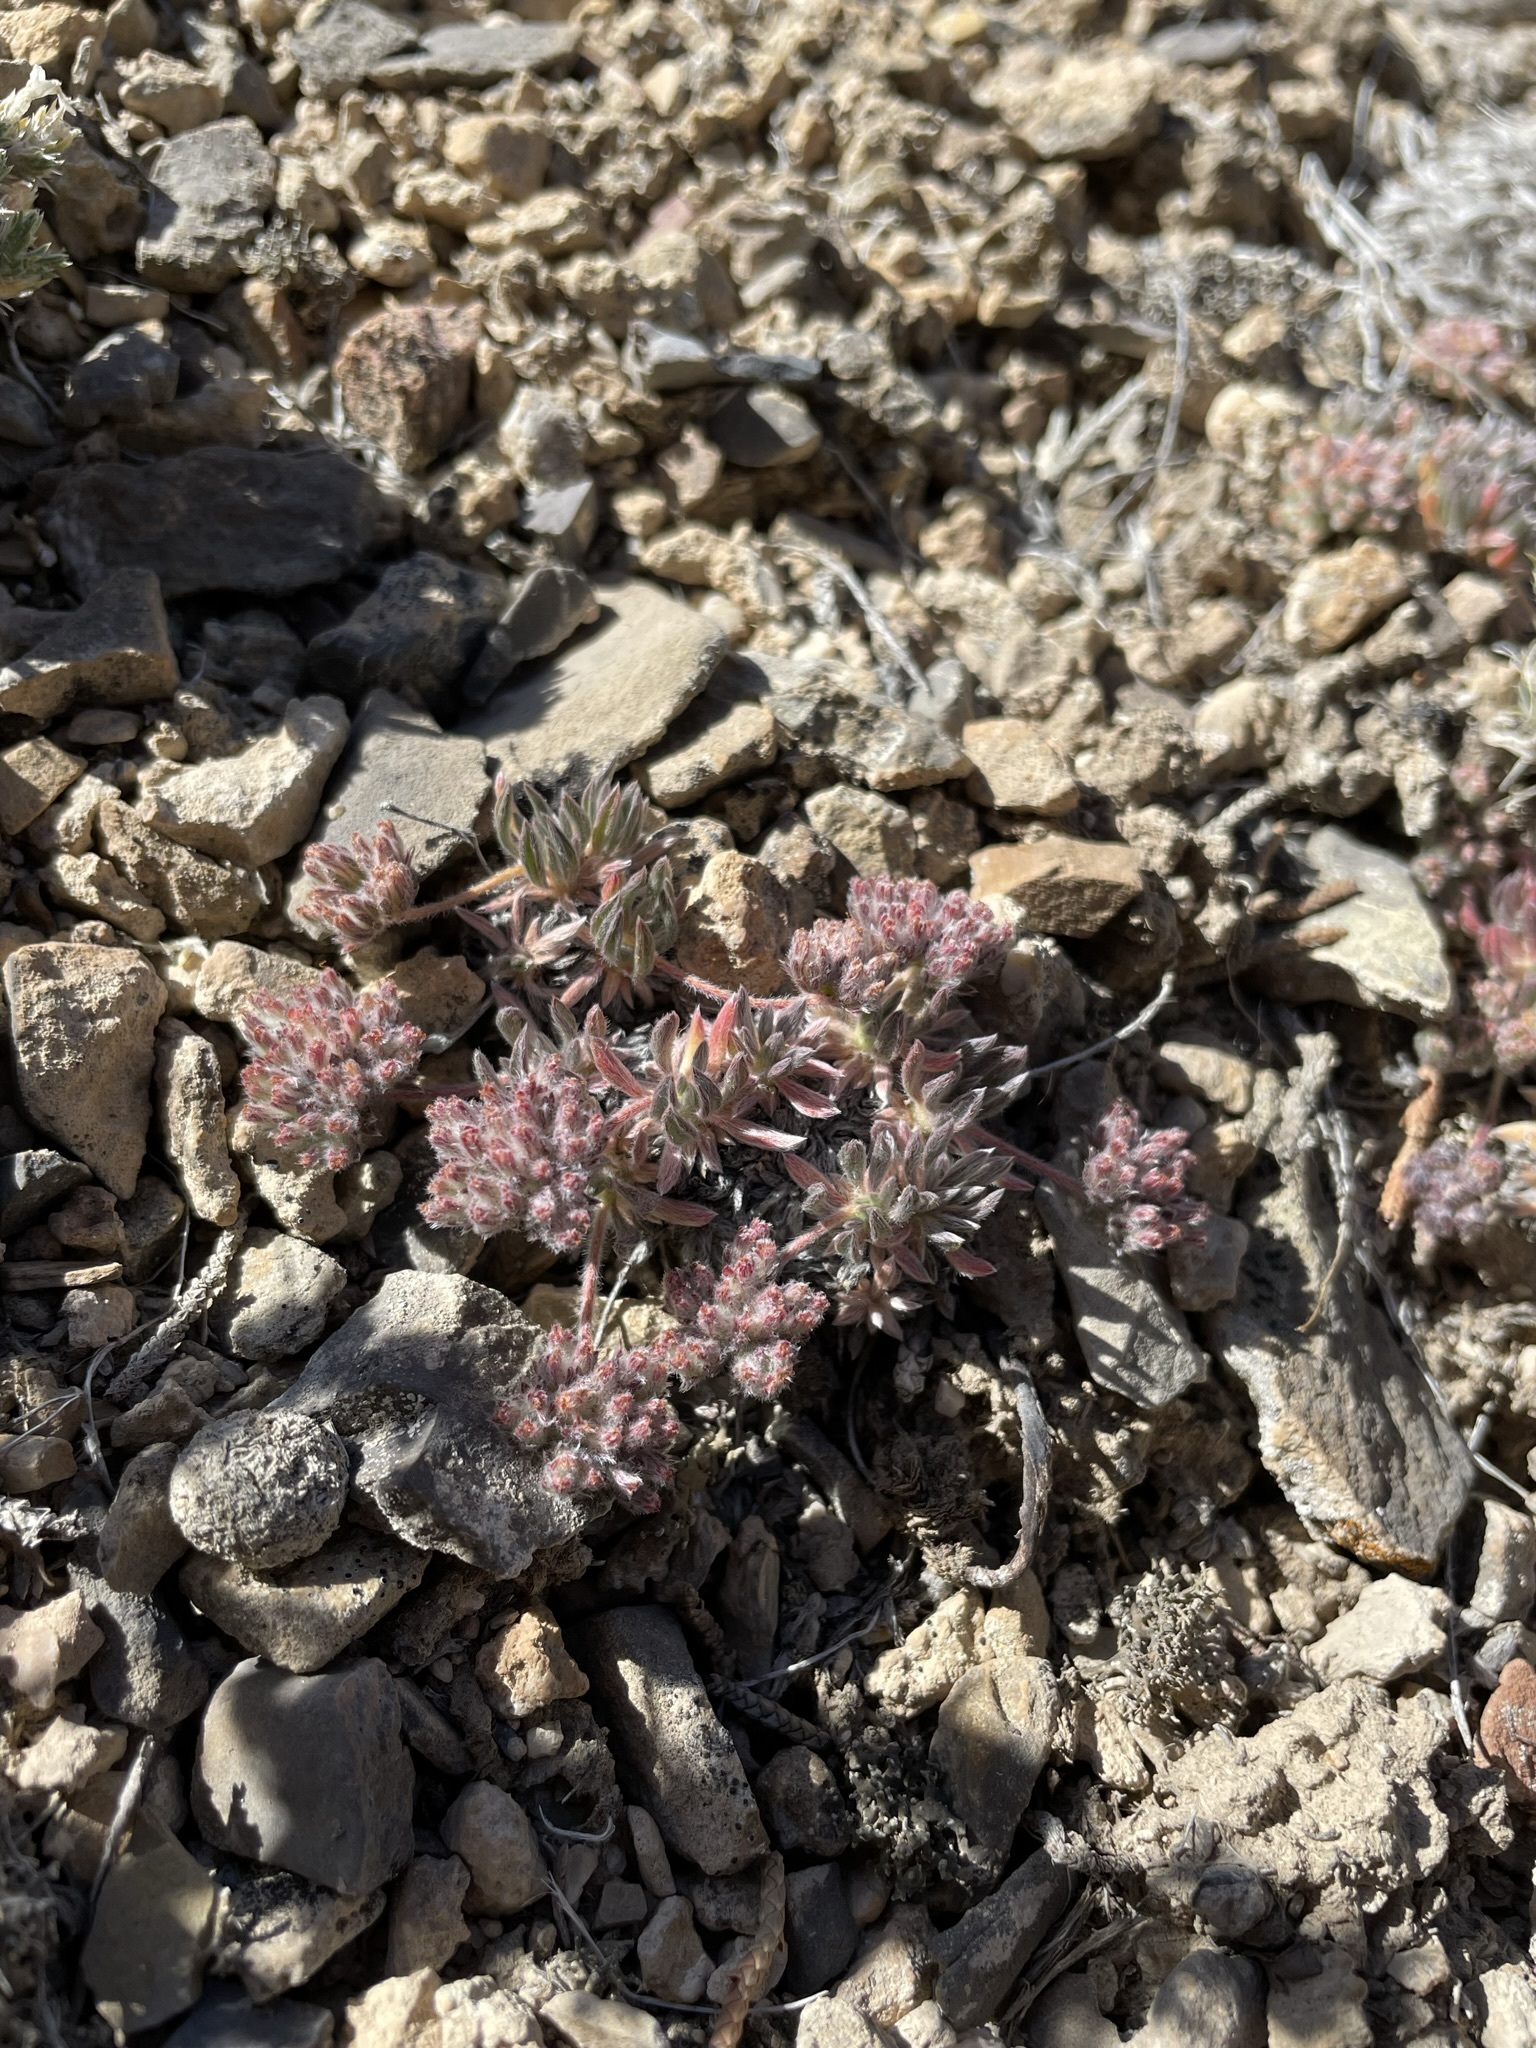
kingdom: Plantae
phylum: Tracheophyta
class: Magnoliopsida
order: Caryophyllales
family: Polygonaceae
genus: Eriogonum
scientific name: Eriogonum villiflorum
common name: Gray's wild buckwheat
